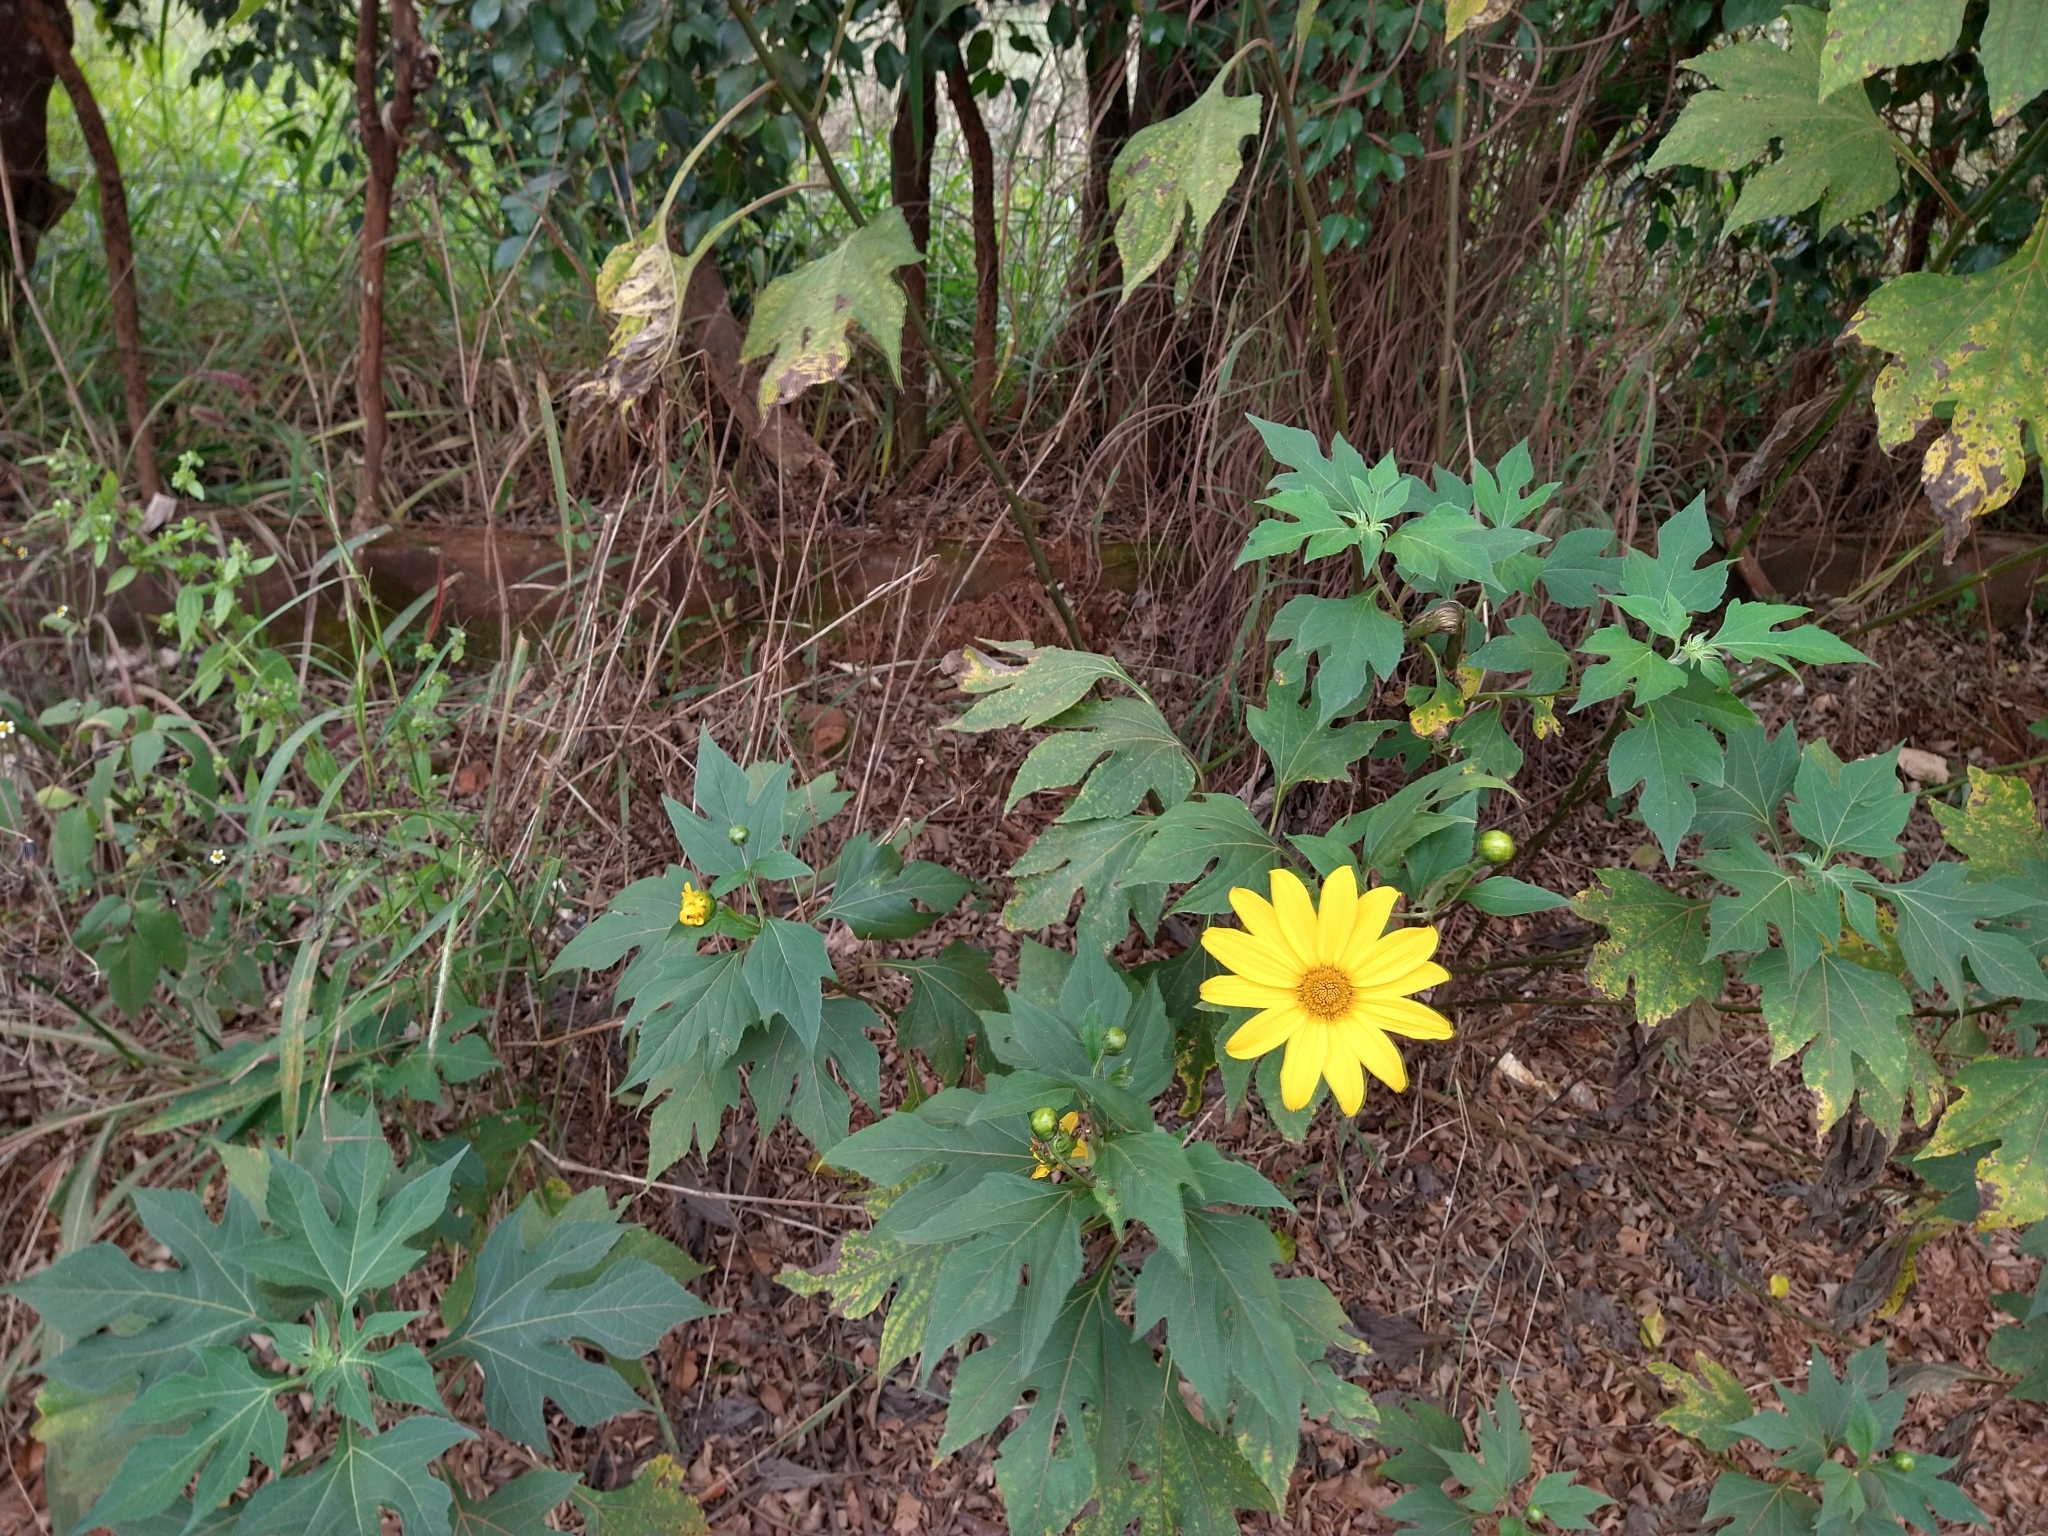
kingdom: Plantae
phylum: Tracheophyta
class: Magnoliopsida
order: Asterales
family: Asteraceae
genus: Tithonia
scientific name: Tithonia diversifolia
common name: Tree marigold
